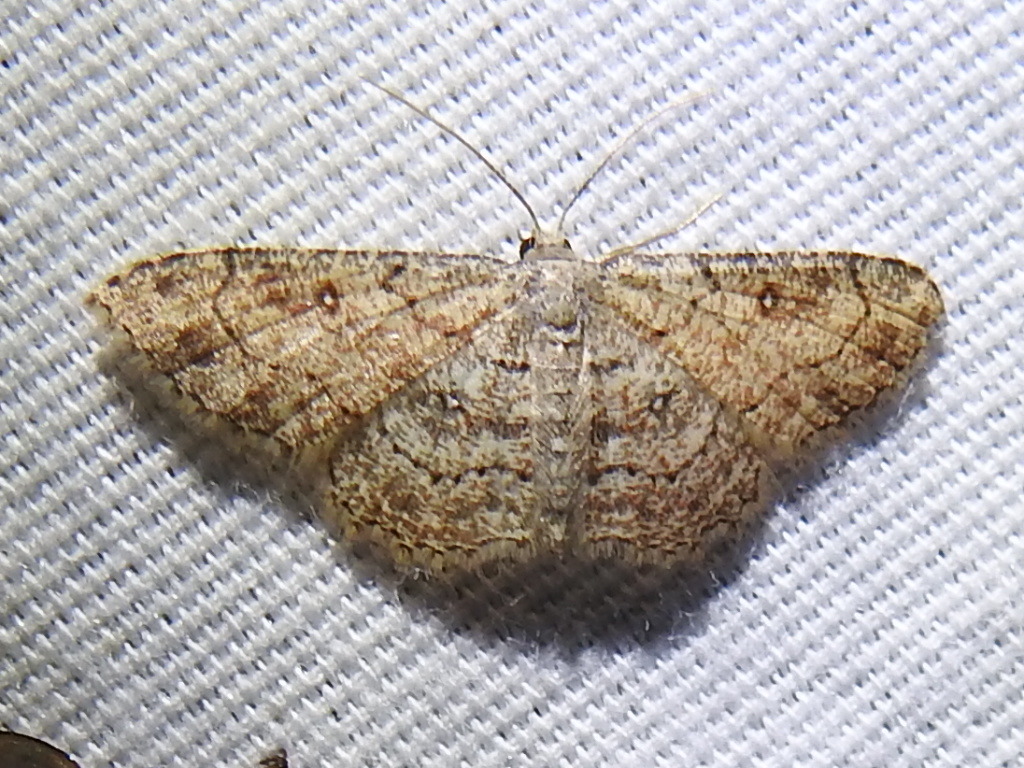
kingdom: Animalia
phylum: Arthropoda
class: Insecta
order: Lepidoptera
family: Geometridae
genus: Cyclophora
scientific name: Cyclophora nanaria
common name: Cankerworm
